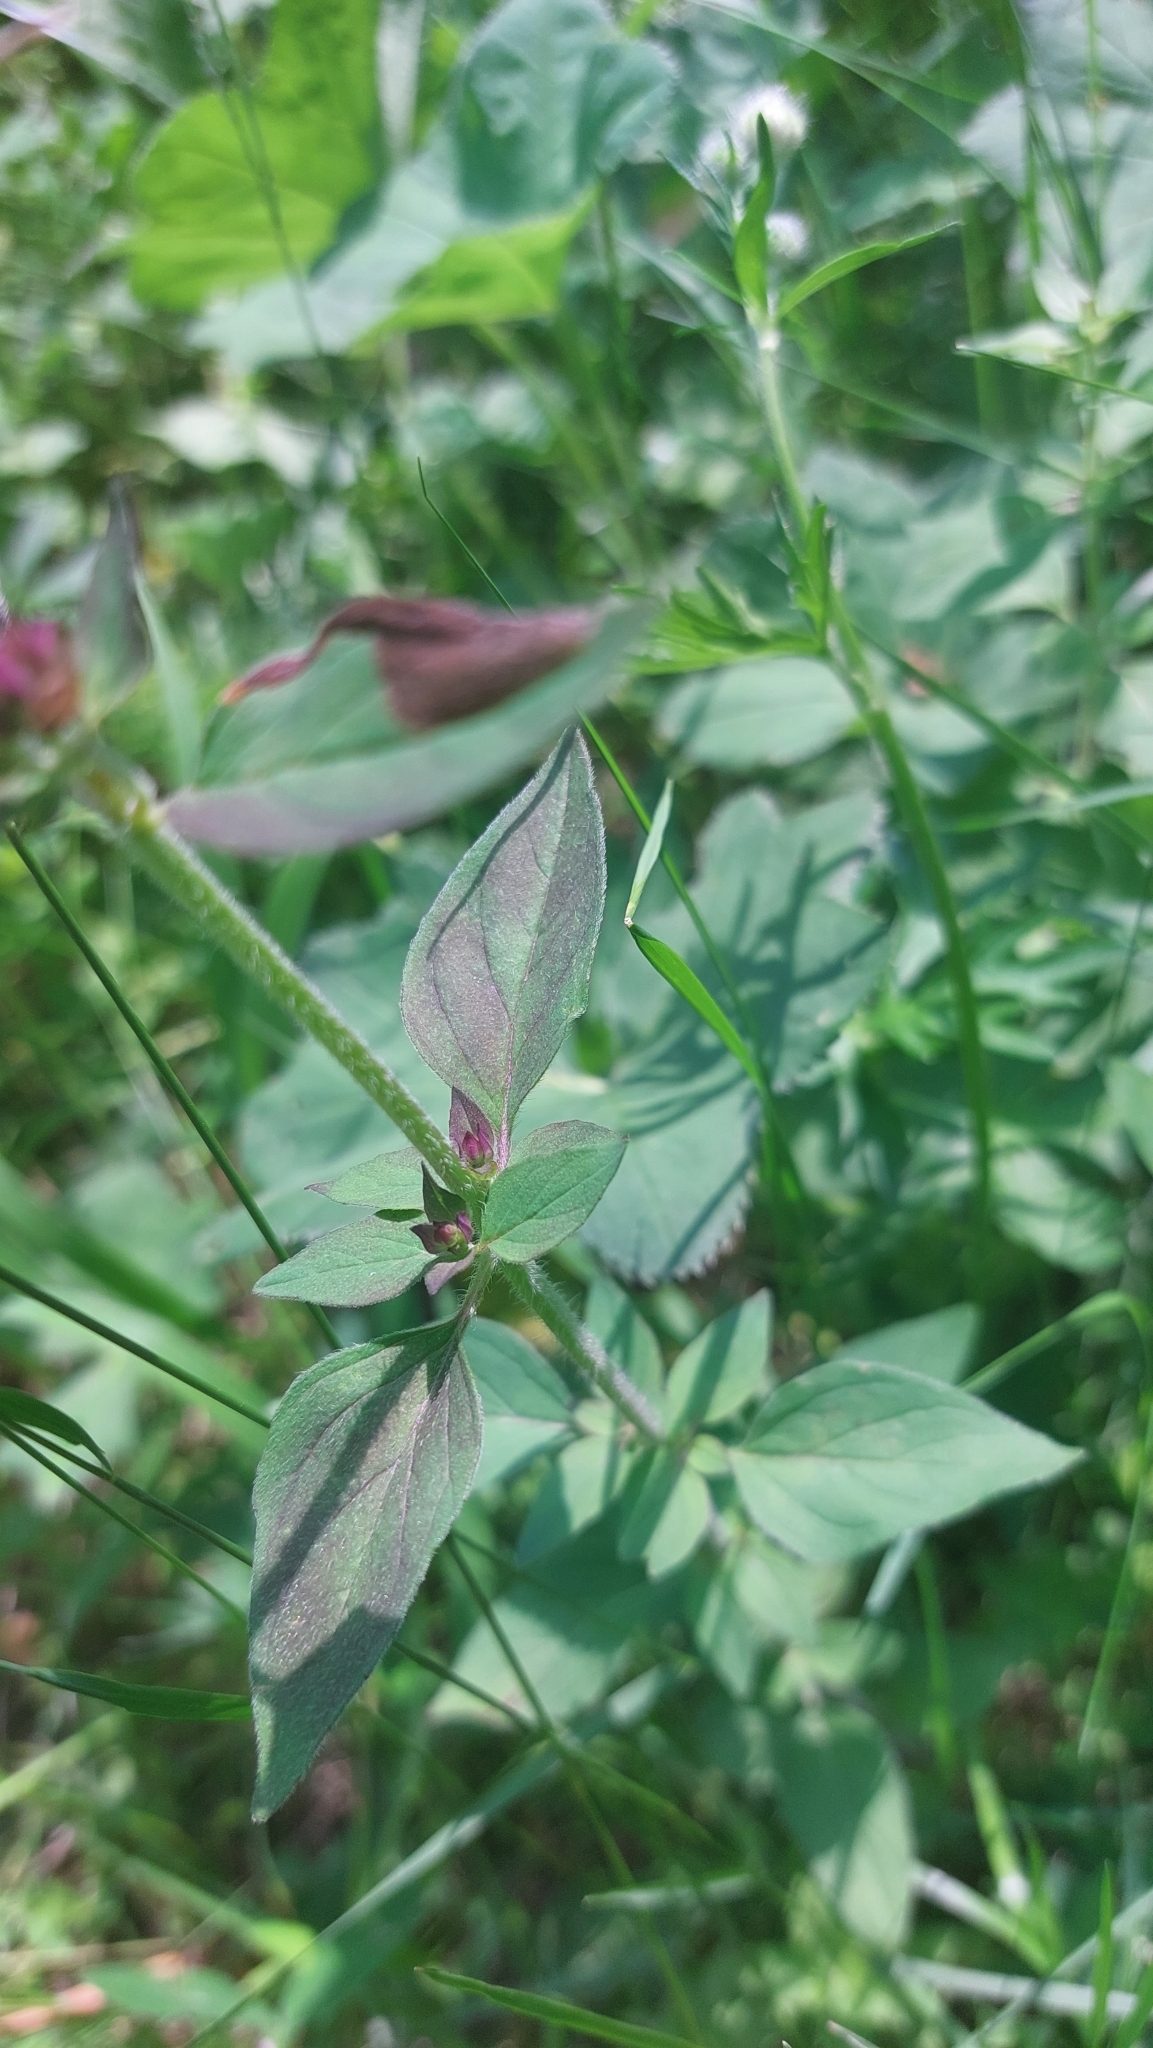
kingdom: Plantae
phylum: Tracheophyta
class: Magnoliopsida
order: Lamiales
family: Lamiaceae
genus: Origanum
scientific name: Origanum vulgare
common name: Wild marjoram
